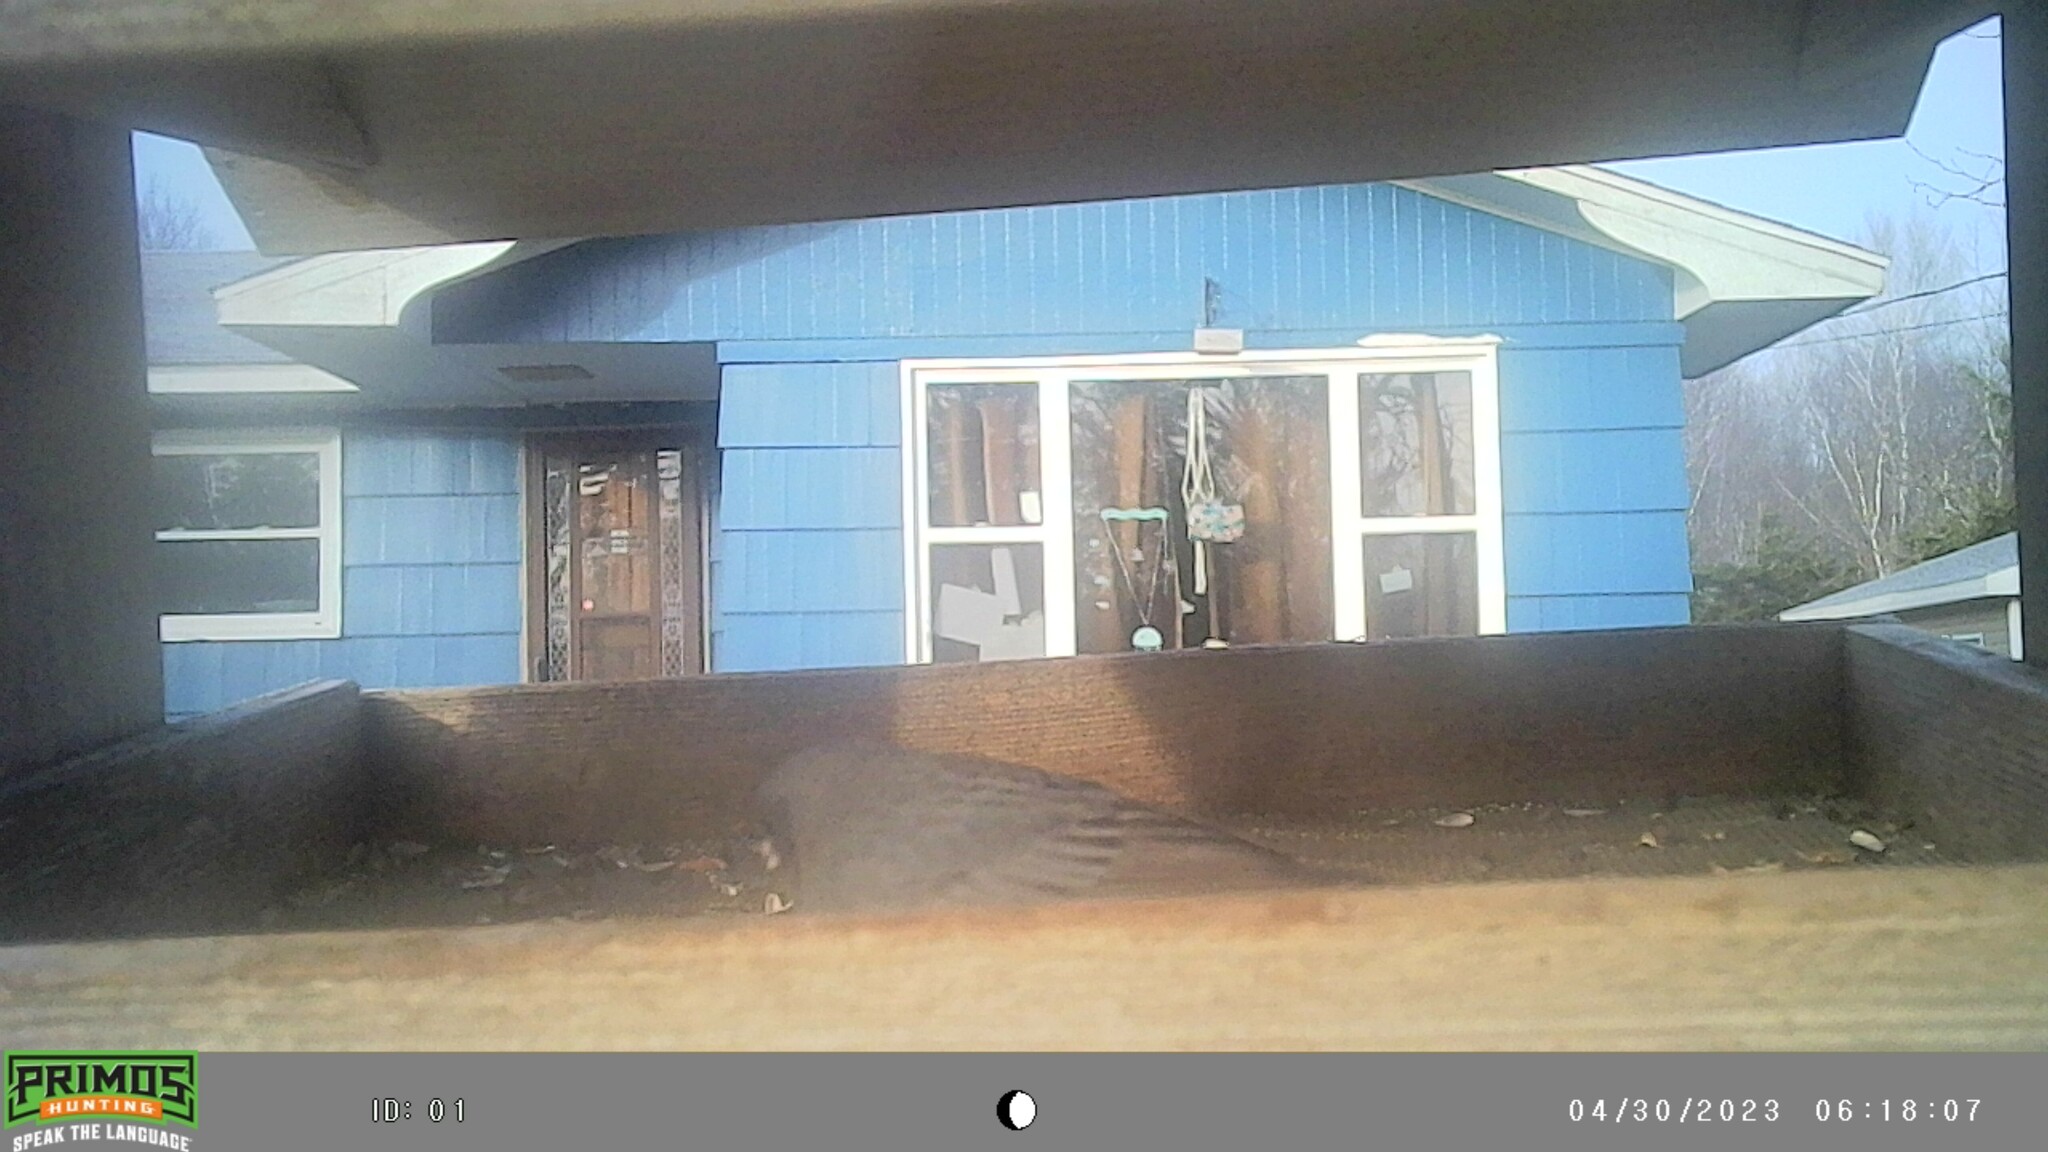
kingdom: Animalia
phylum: Chordata
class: Aves
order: Passeriformes
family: Passerellidae
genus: Junco
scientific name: Junco hyemalis
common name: Dark-eyed junco
